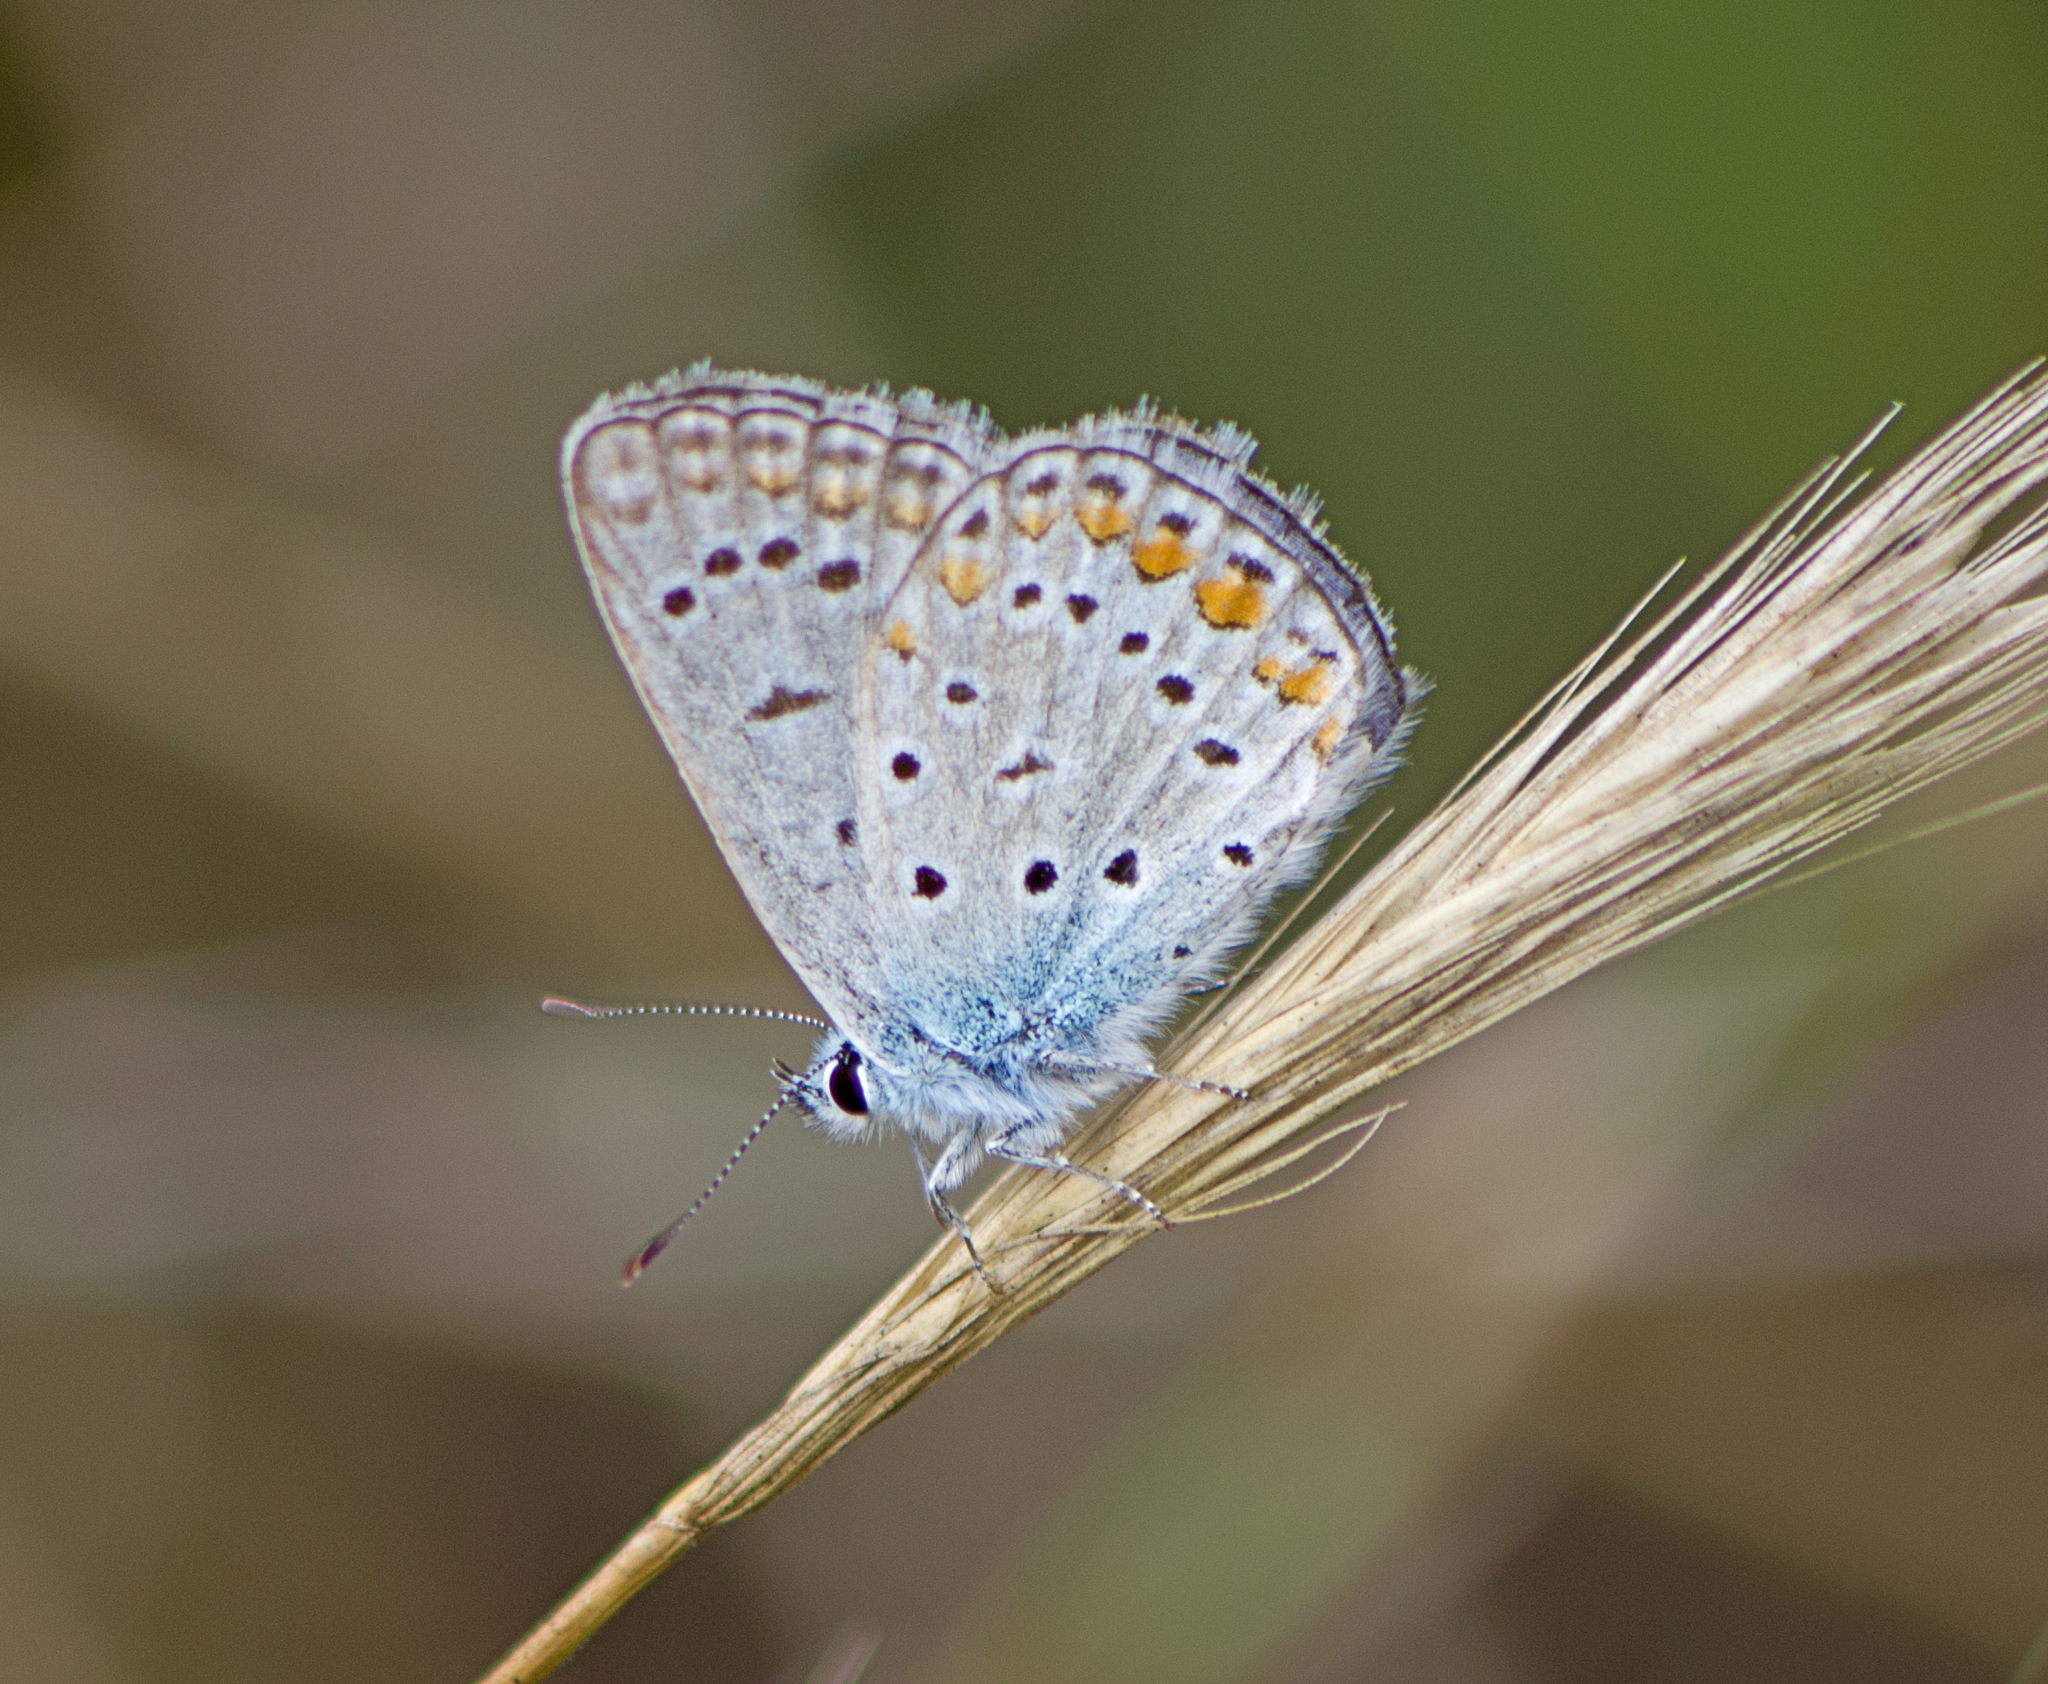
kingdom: Animalia
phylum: Arthropoda
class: Insecta
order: Lepidoptera
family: Lycaenidae
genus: Polyommatus
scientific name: Polyommatus icarus
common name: Common blue
